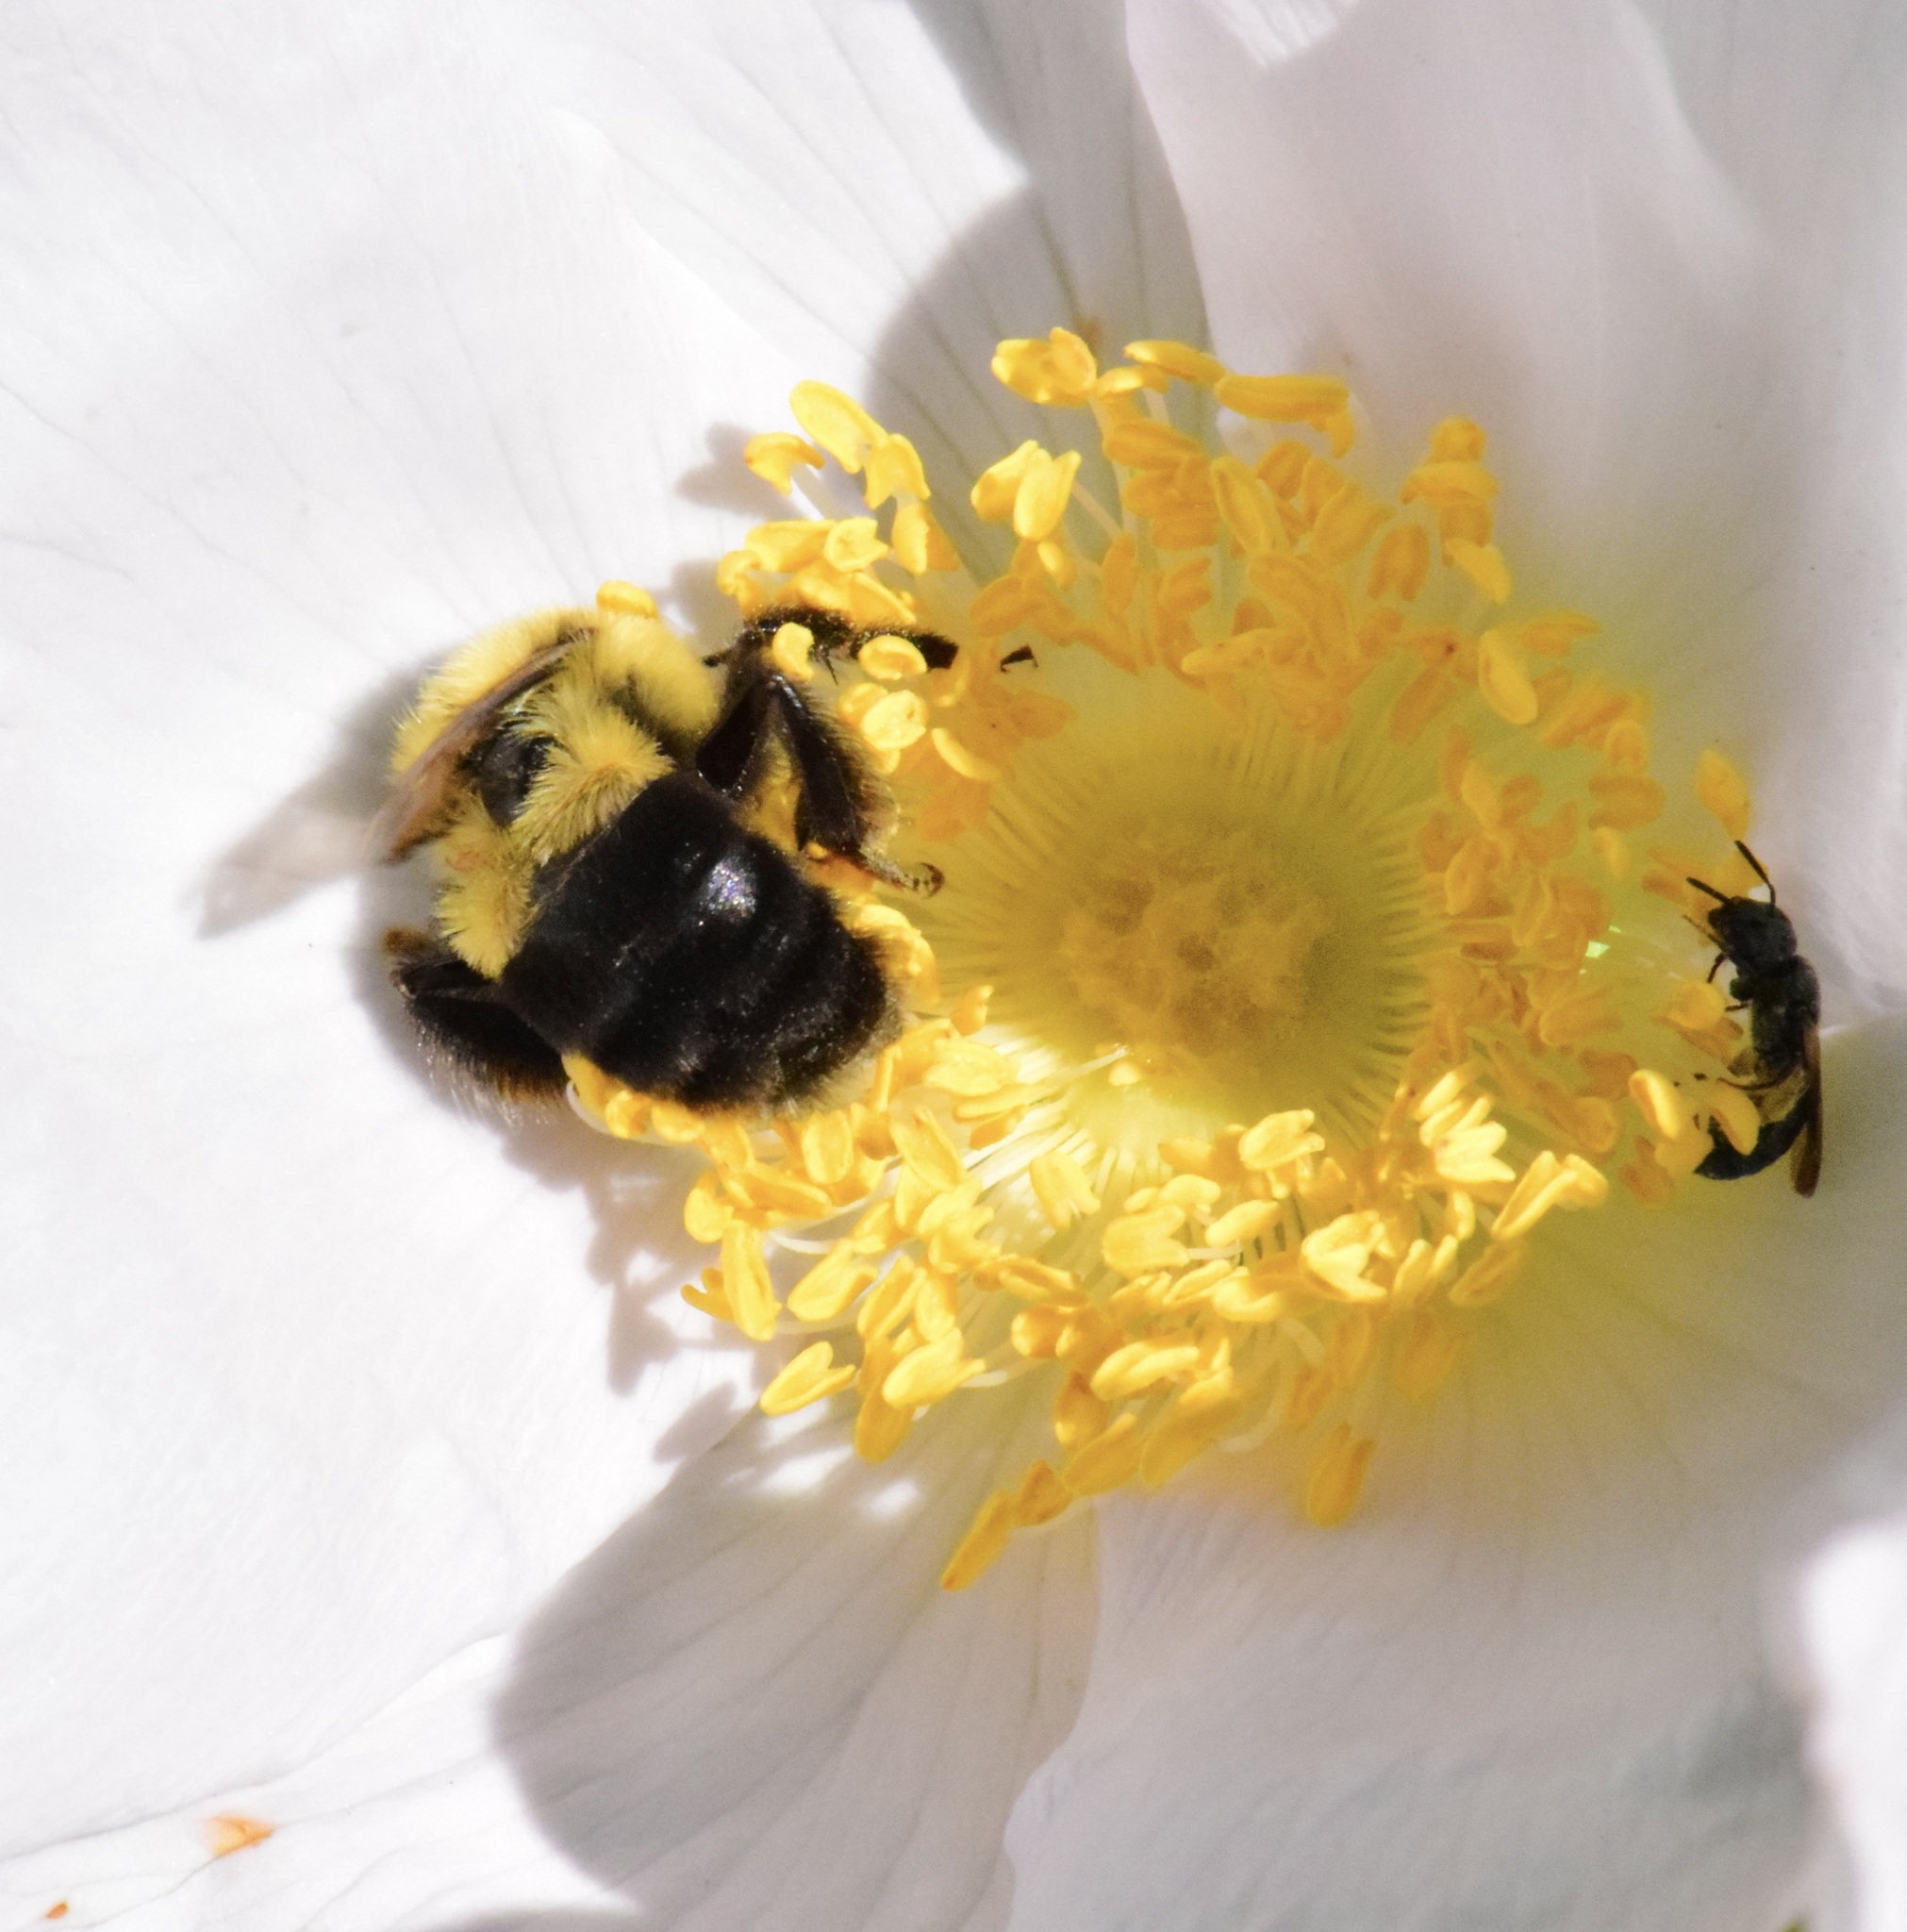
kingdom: Animalia
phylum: Arthropoda
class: Insecta
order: Hymenoptera
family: Apidae
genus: Bombus
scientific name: Bombus impatiens
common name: Common eastern bumble bee
